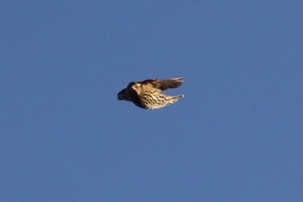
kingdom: Animalia
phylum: Chordata
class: Aves
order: Passeriformes
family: Icteridae
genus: Agelaius
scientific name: Agelaius phoeniceus
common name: Red-winged blackbird
